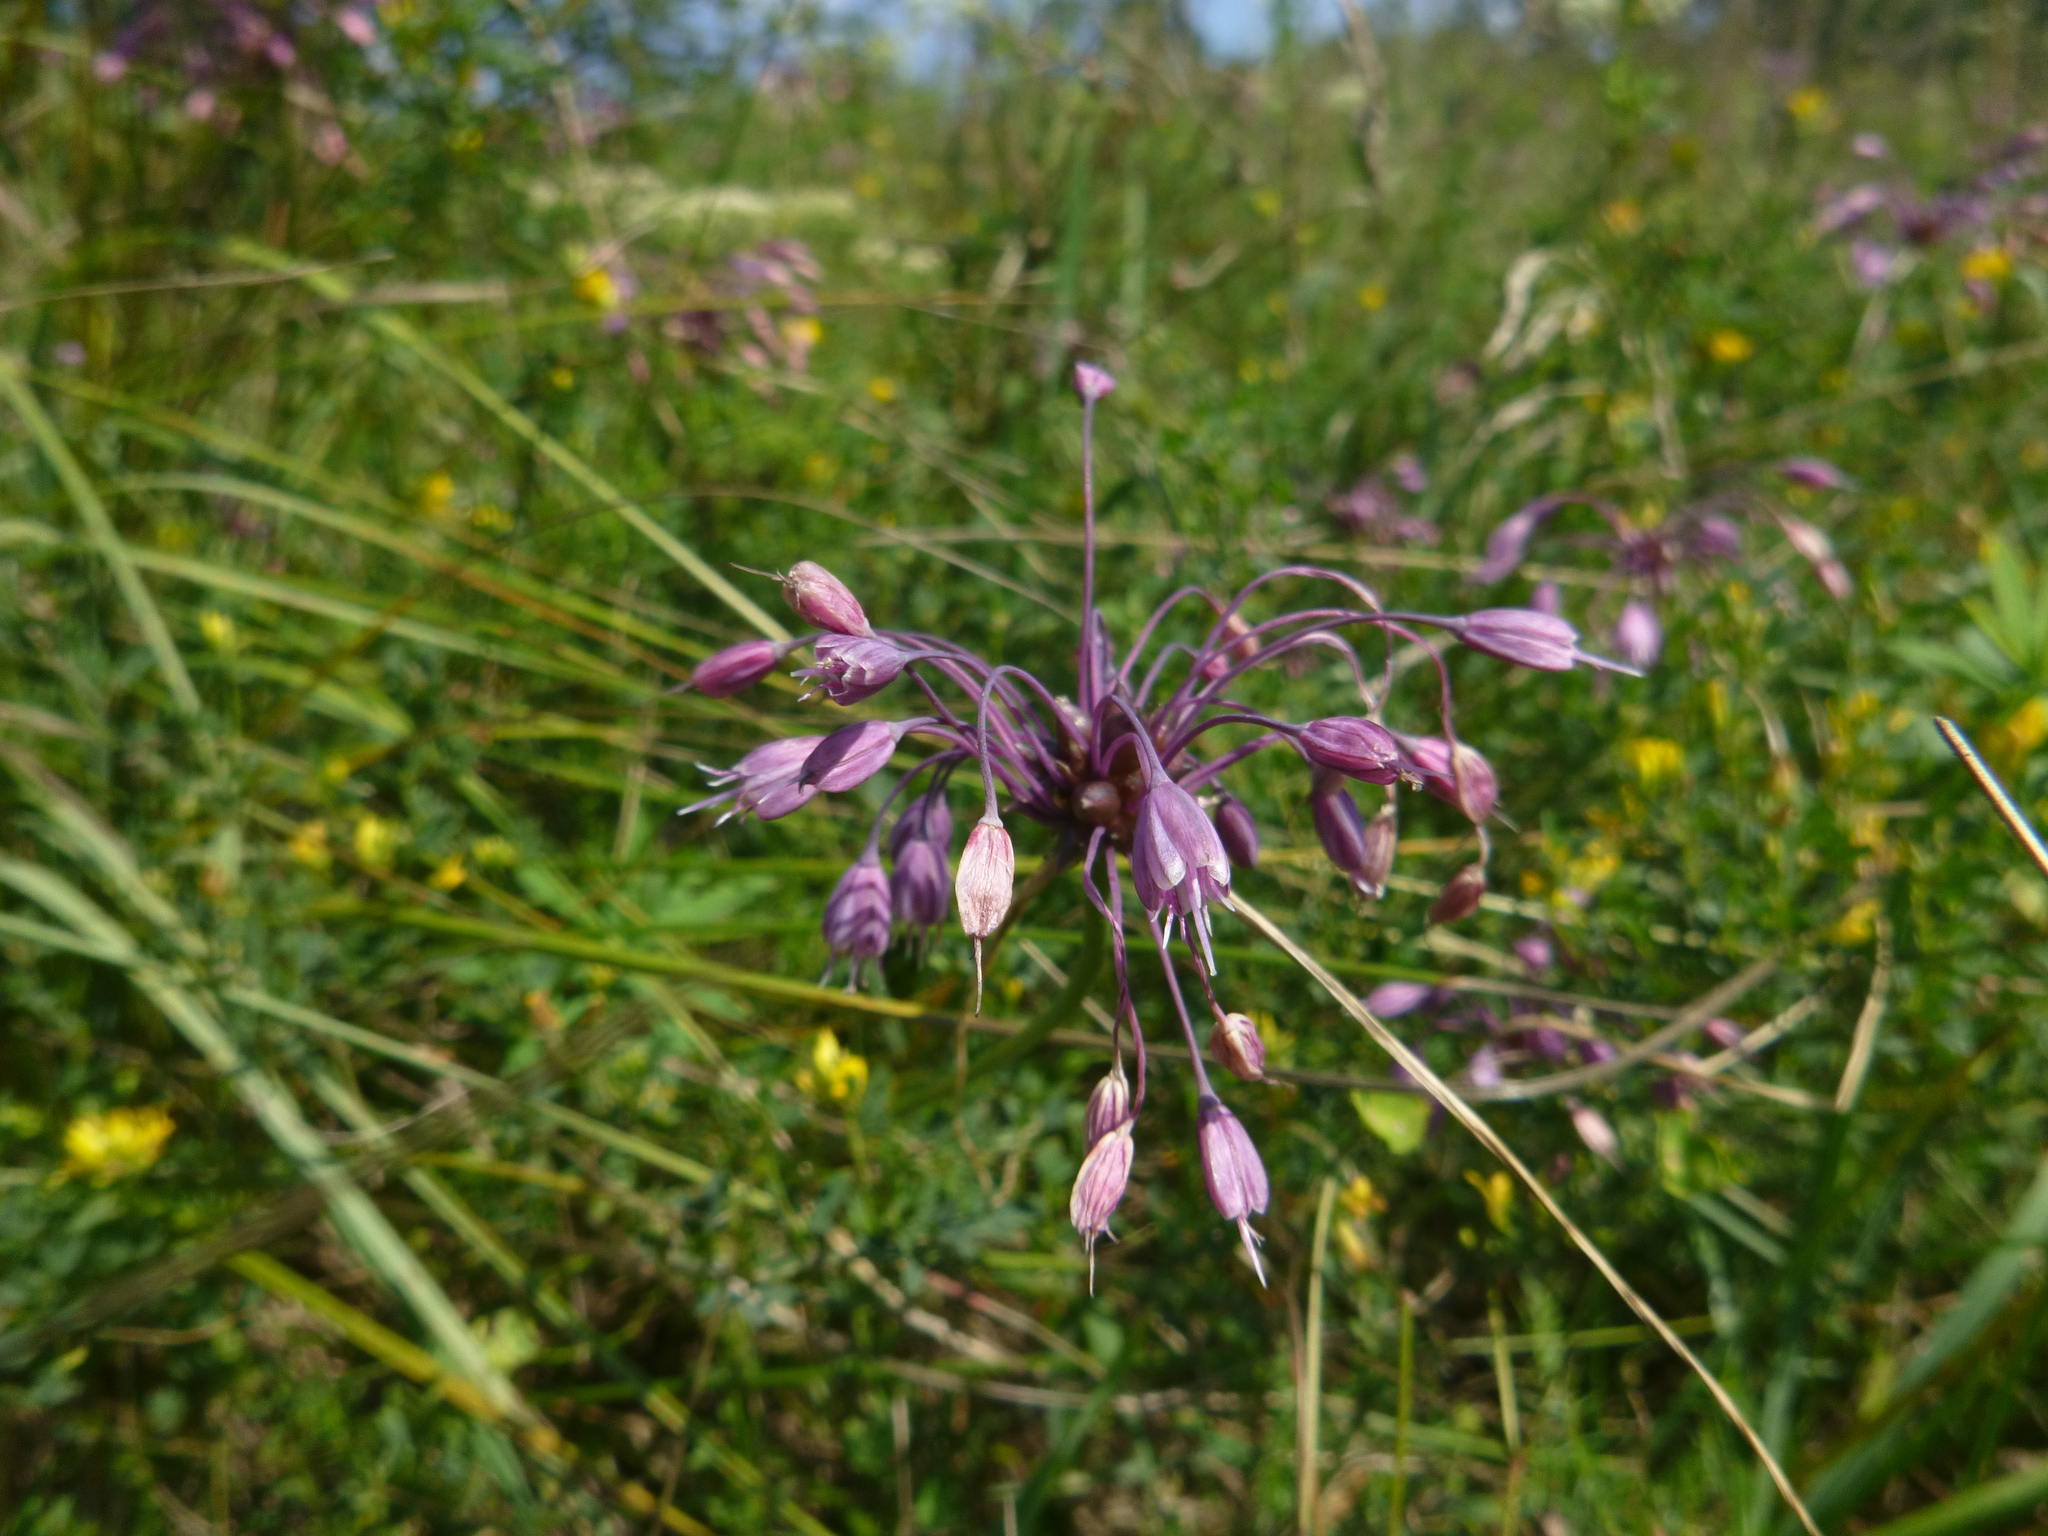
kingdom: Plantae
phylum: Tracheophyta
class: Liliopsida
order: Asparagales
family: Amaryllidaceae
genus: Allium
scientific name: Allium carinatum
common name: Keeled garlic
